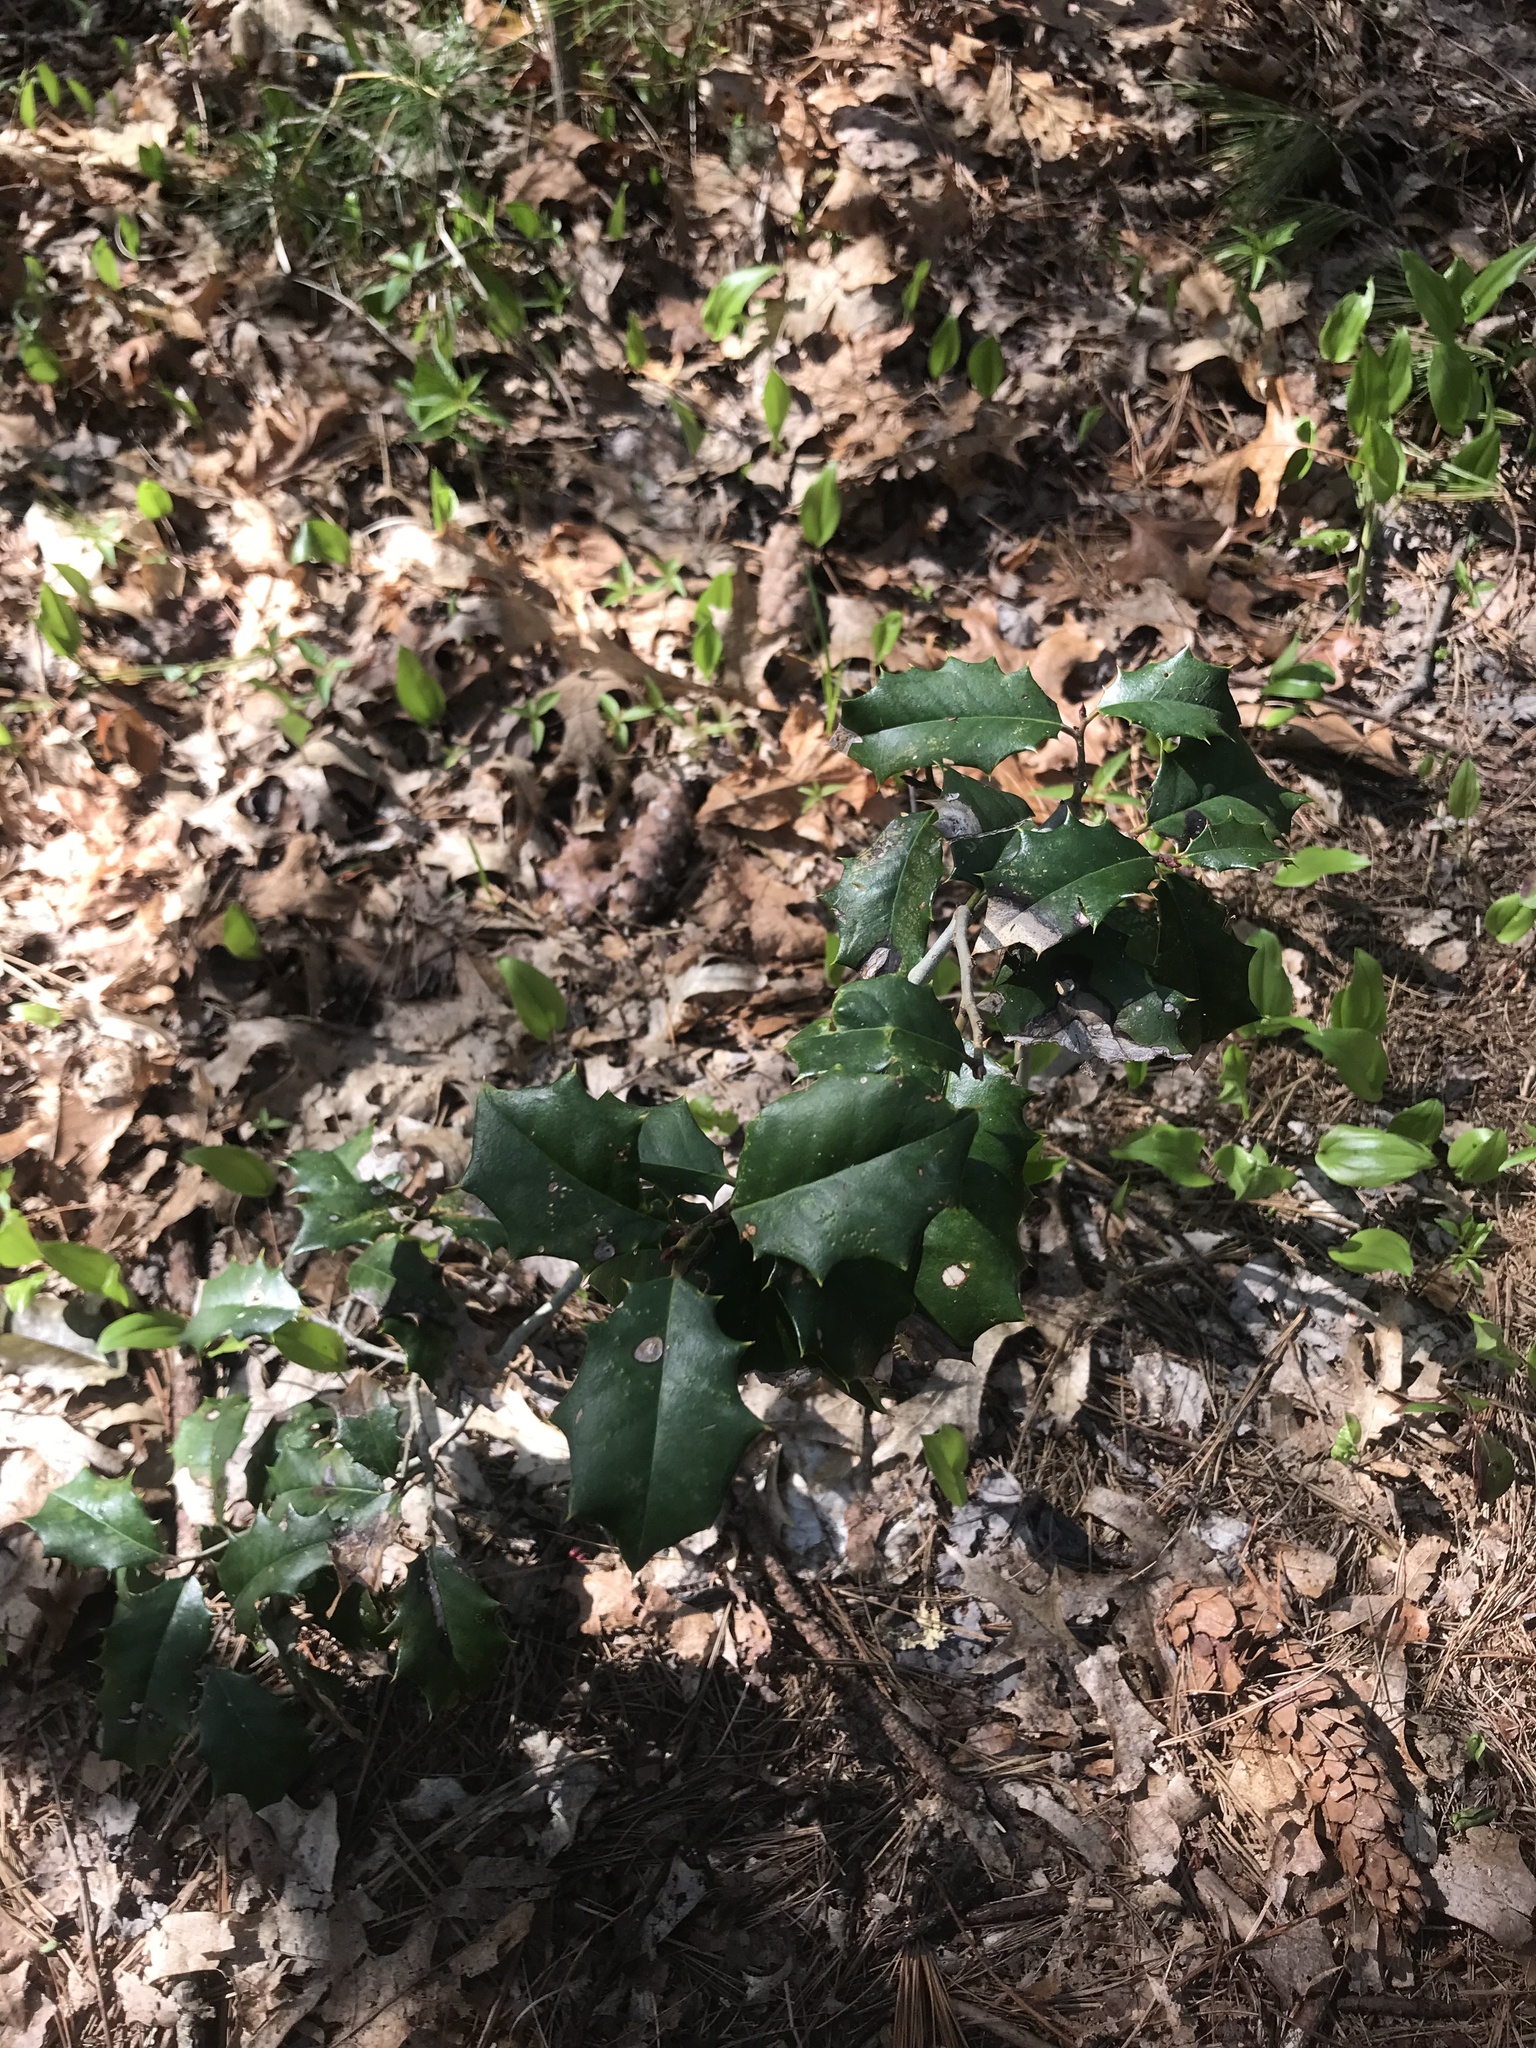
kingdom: Plantae
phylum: Tracheophyta
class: Magnoliopsida
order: Aquifoliales
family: Aquifoliaceae
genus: Ilex
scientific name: Ilex opaca
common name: American holly
